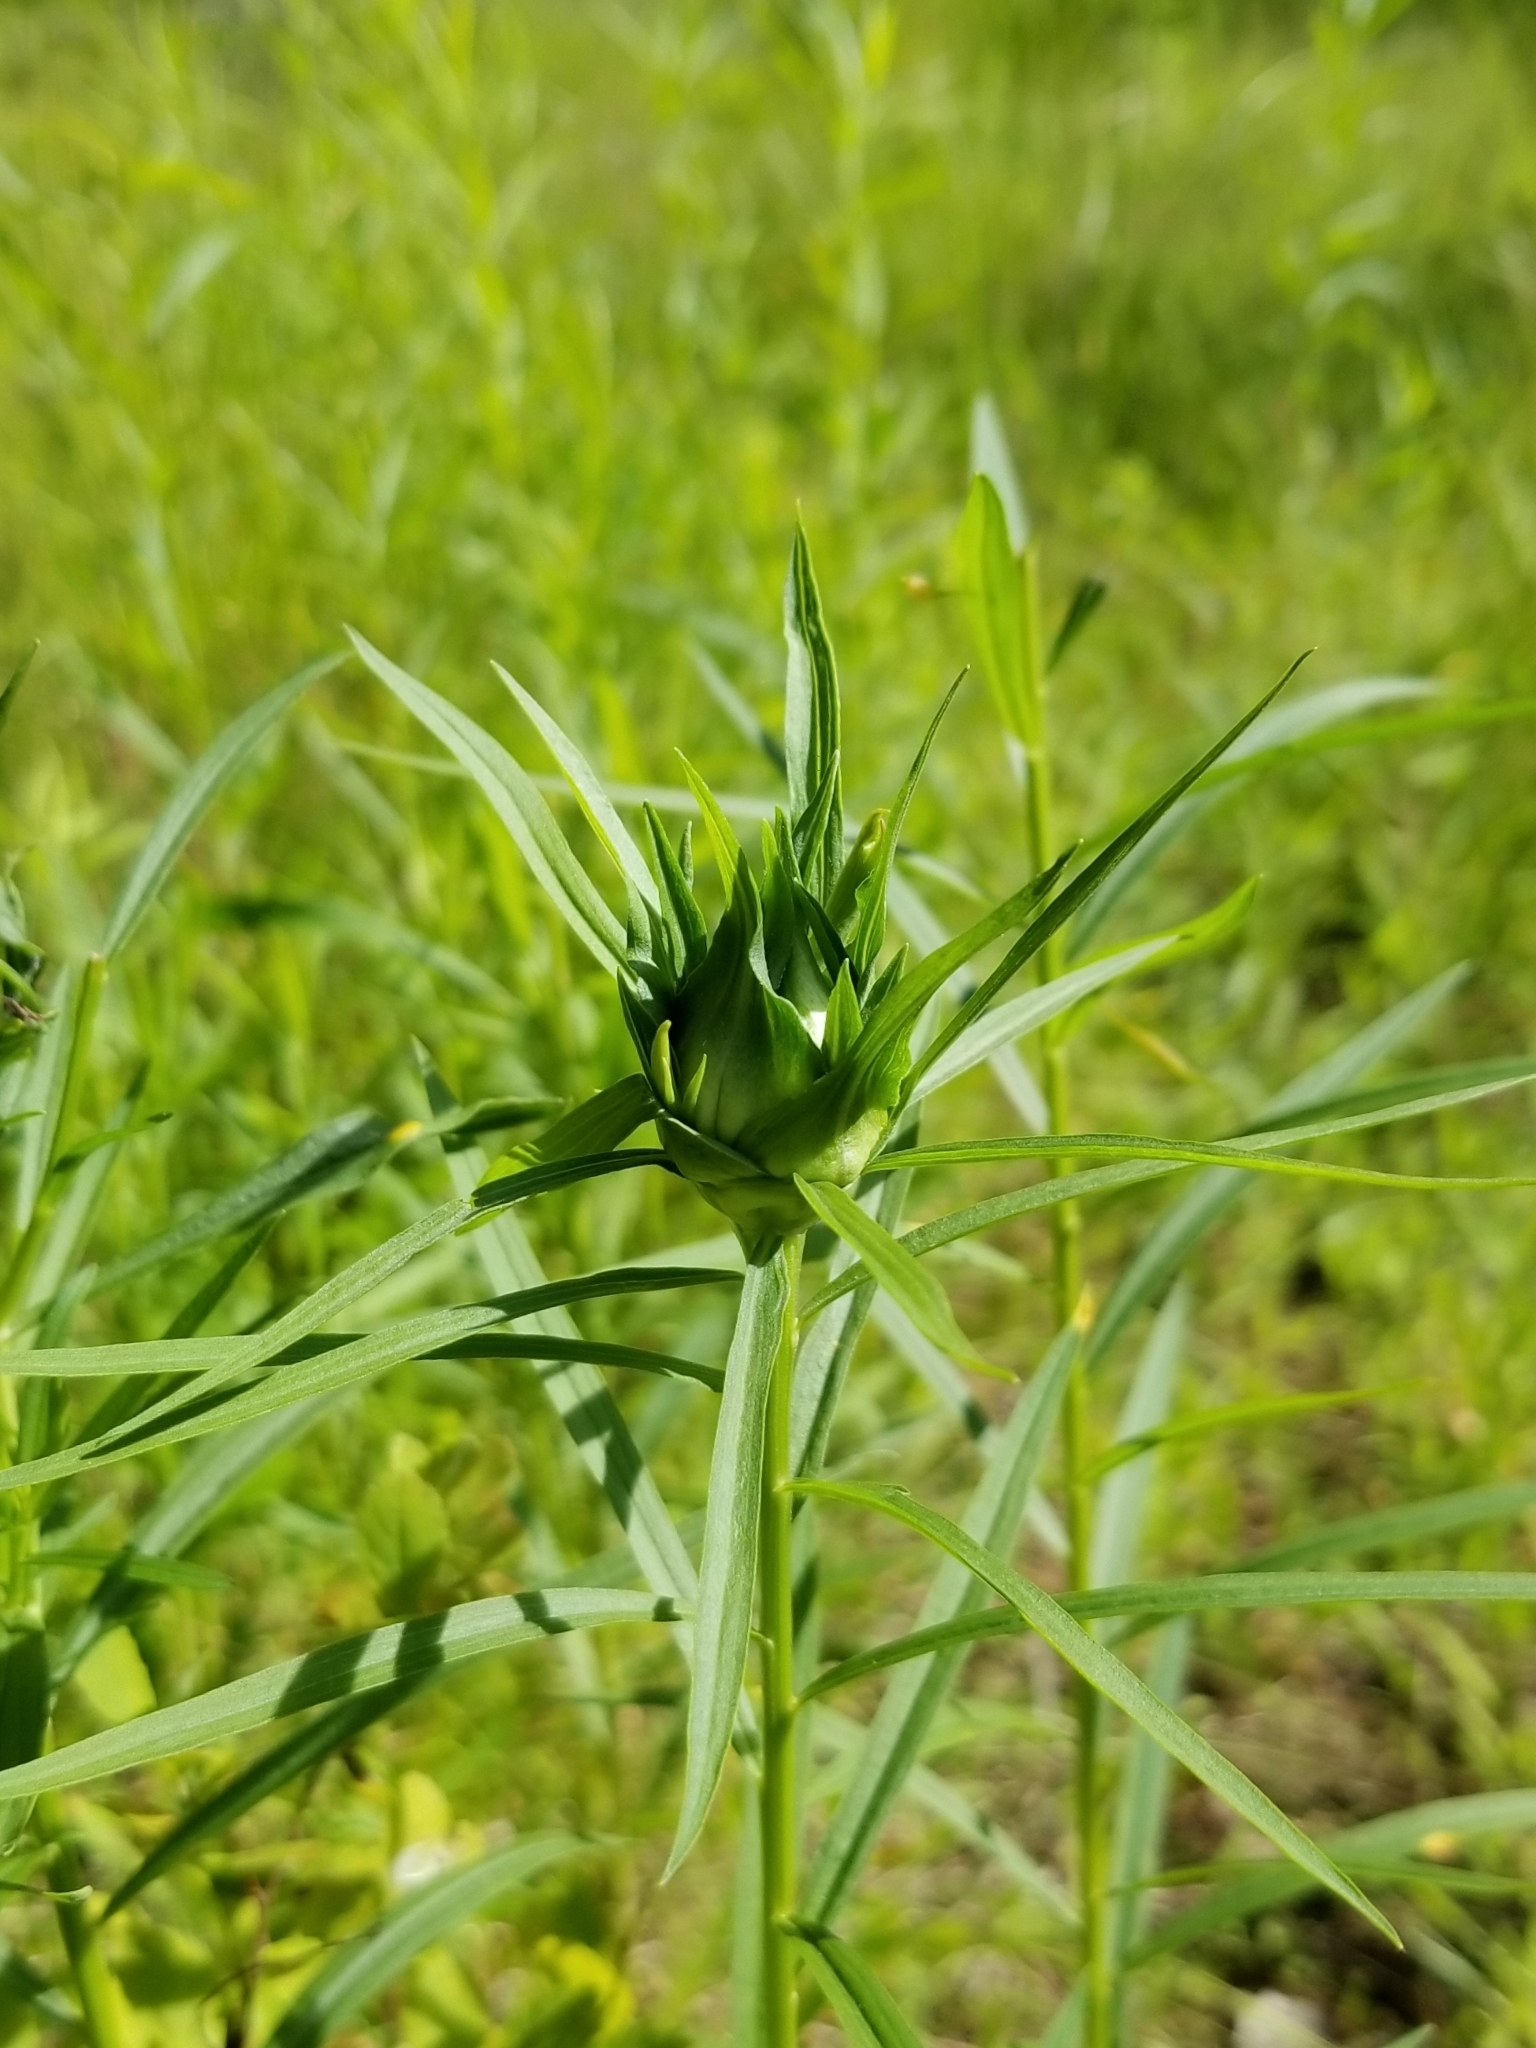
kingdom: Animalia
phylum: Arthropoda
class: Insecta
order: Diptera
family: Cecidomyiidae
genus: Rhopalomyia
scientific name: Rhopalomyia lobata
